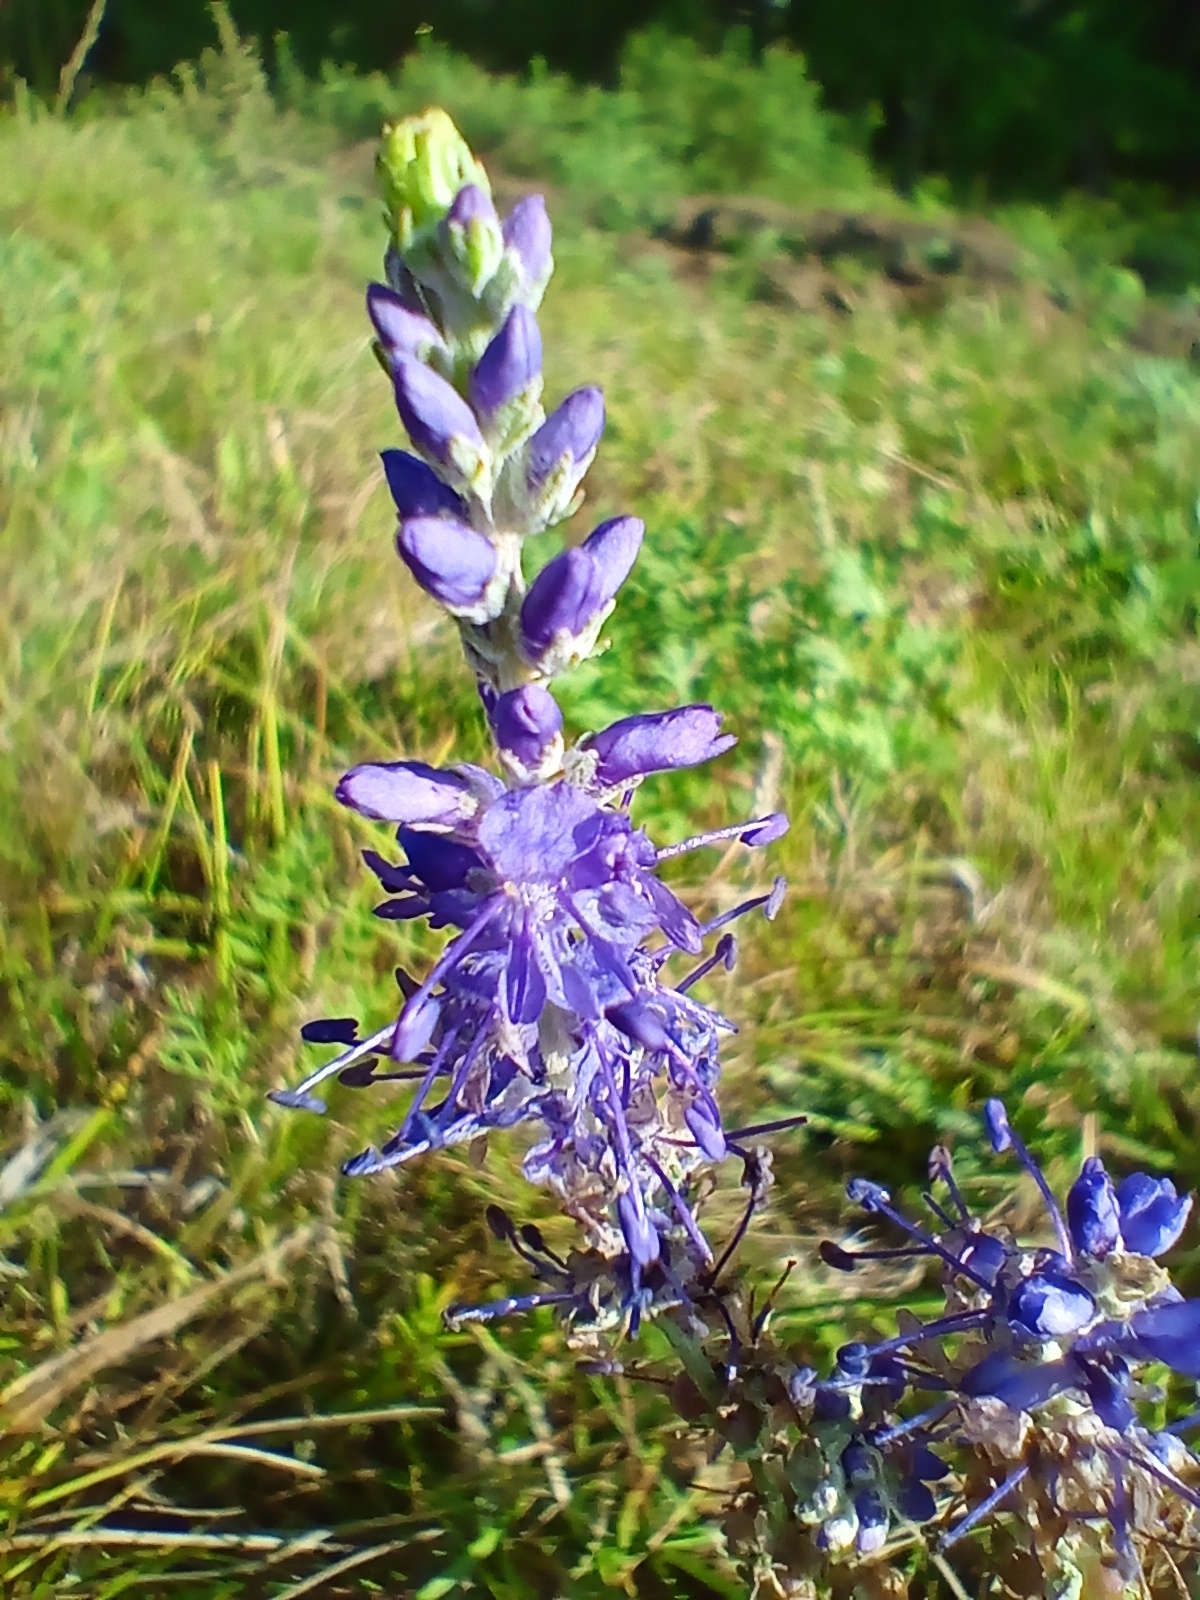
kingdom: Plantae
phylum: Tracheophyta
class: Magnoliopsida
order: Lamiales
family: Plantaginaceae
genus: Veronica
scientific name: Veronica incana
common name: Silver speedwell
